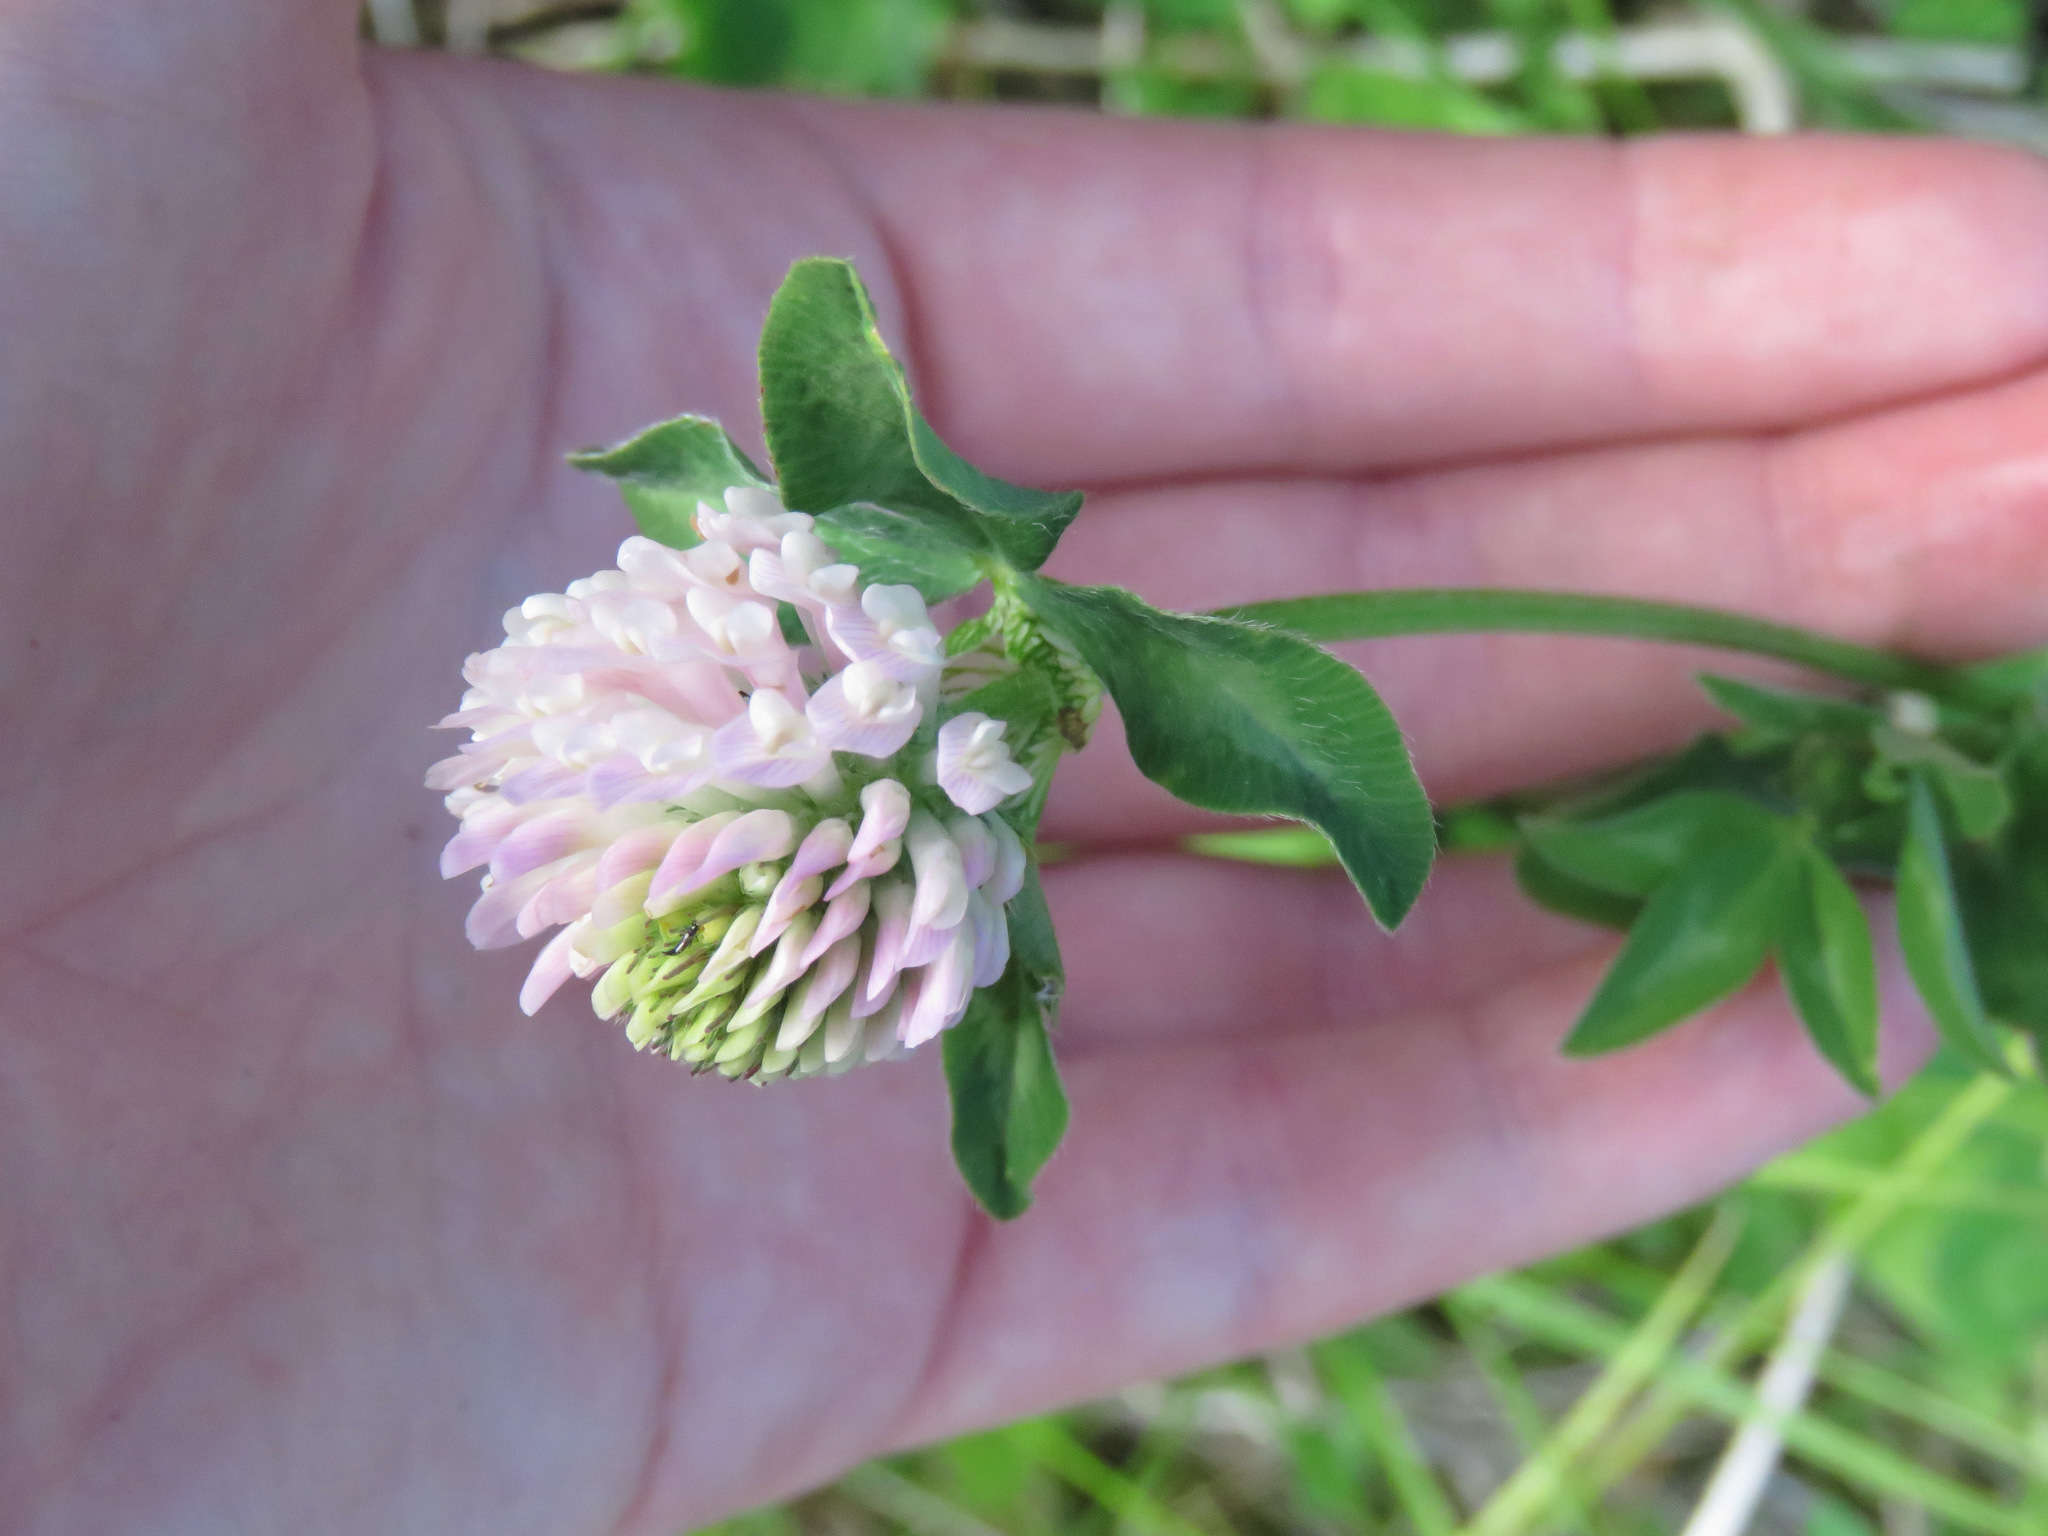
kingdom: Plantae
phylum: Tracheophyta
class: Magnoliopsida
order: Fabales
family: Fabaceae
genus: Trifolium
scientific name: Trifolium pratense
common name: Red clover
